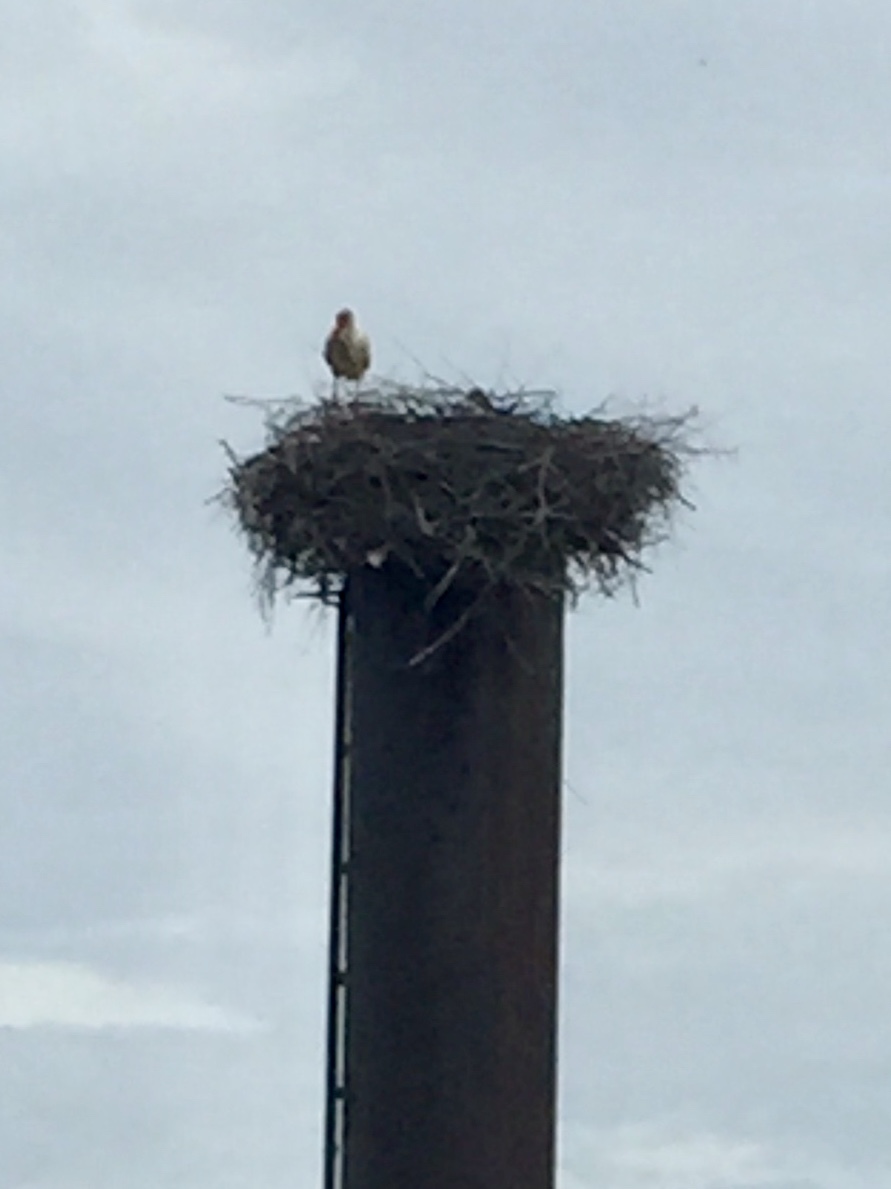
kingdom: Animalia
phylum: Chordata
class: Aves
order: Ciconiiformes
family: Ciconiidae
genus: Ciconia
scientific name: Ciconia ciconia
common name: White stork
